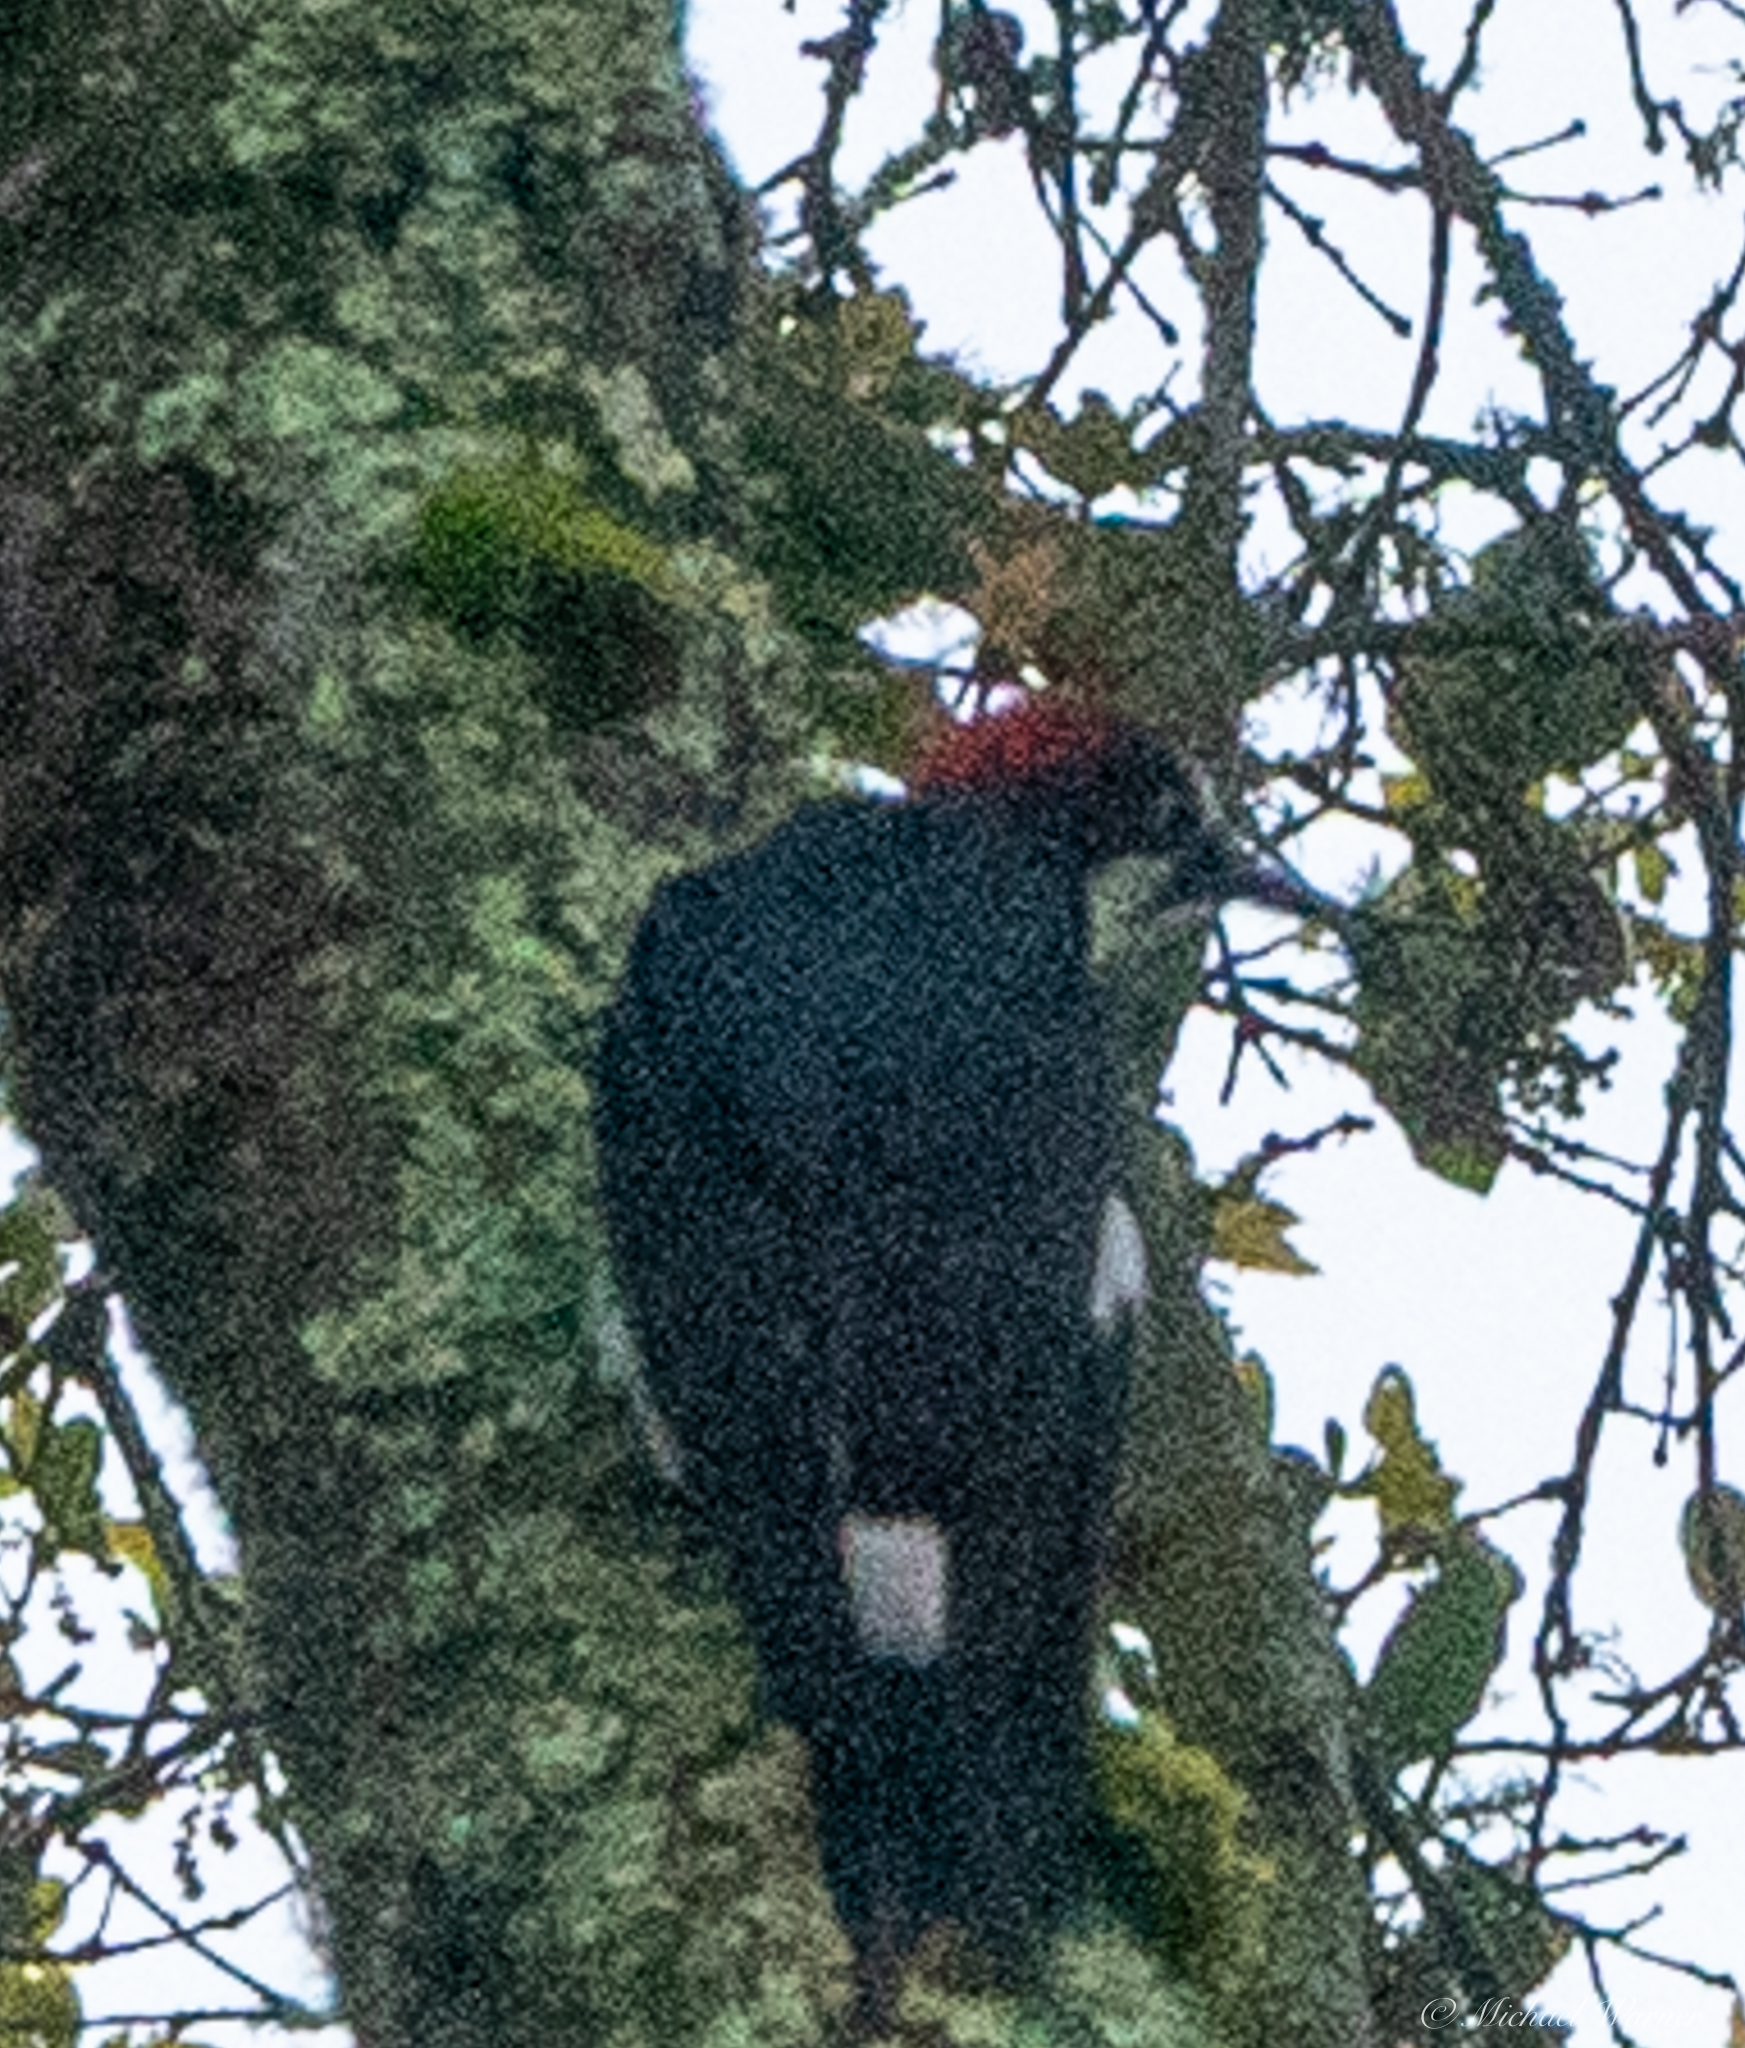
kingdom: Animalia
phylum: Chordata
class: Aves
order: Piciformes
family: Picidae
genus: Melanerpes
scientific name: Melanerpes formicivorus
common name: Acorn woodpecker
